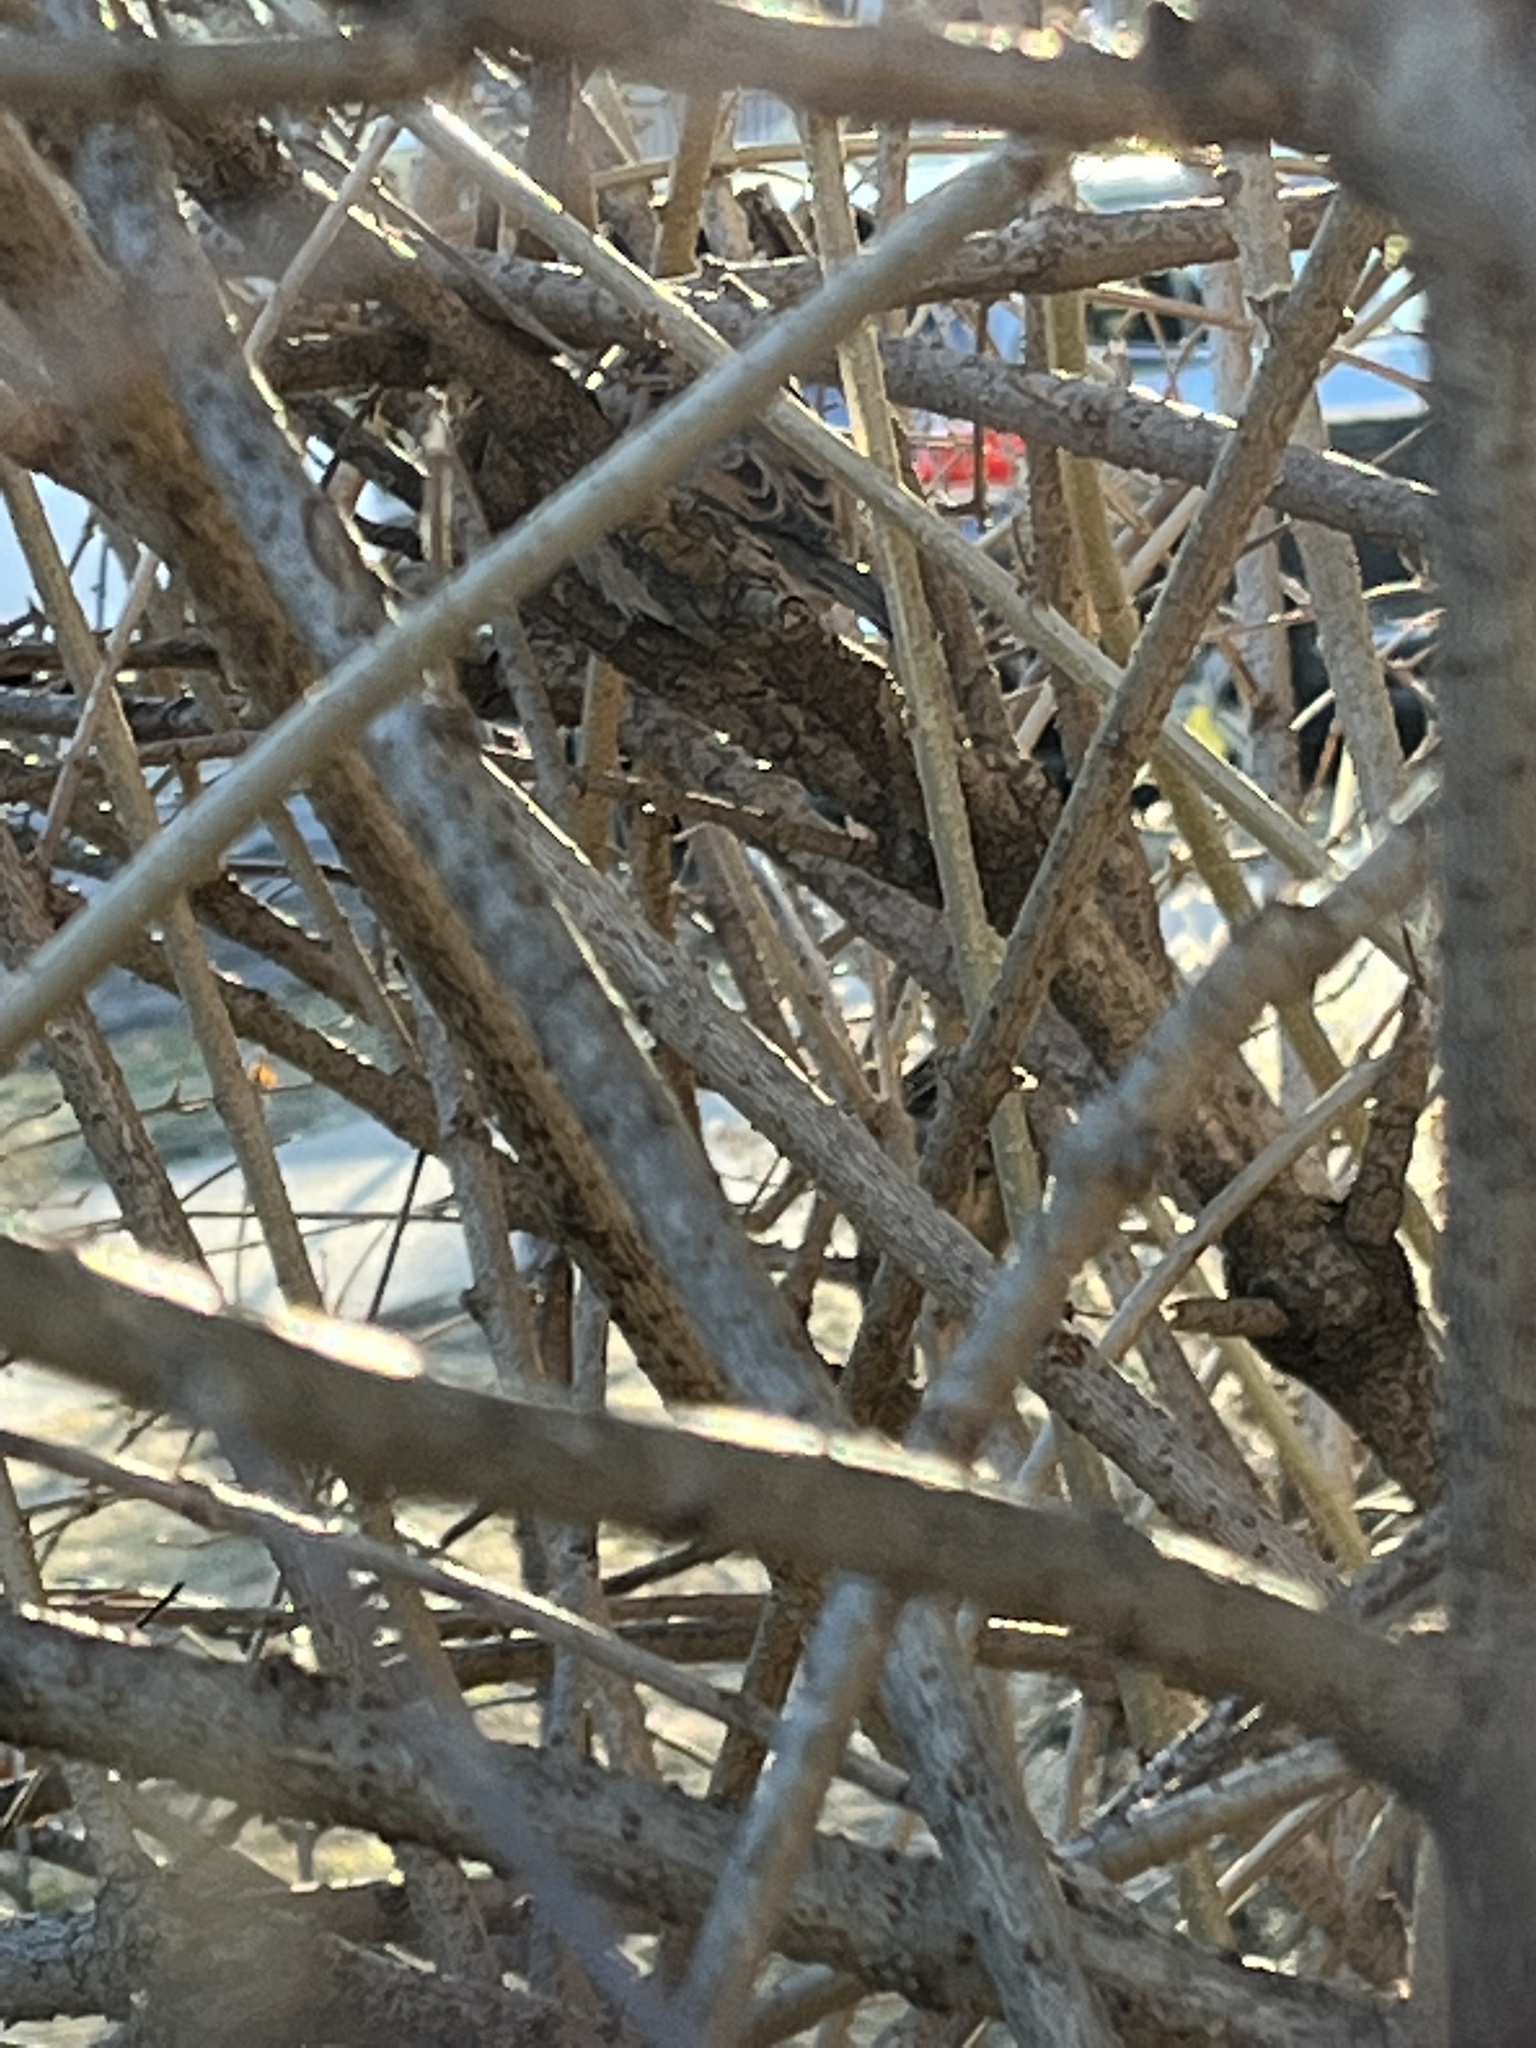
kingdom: Animalia
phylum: Chordata
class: Aves
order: Passeriformes
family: Passeridae
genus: Passer
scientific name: Passer domesticus
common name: House sparrow
